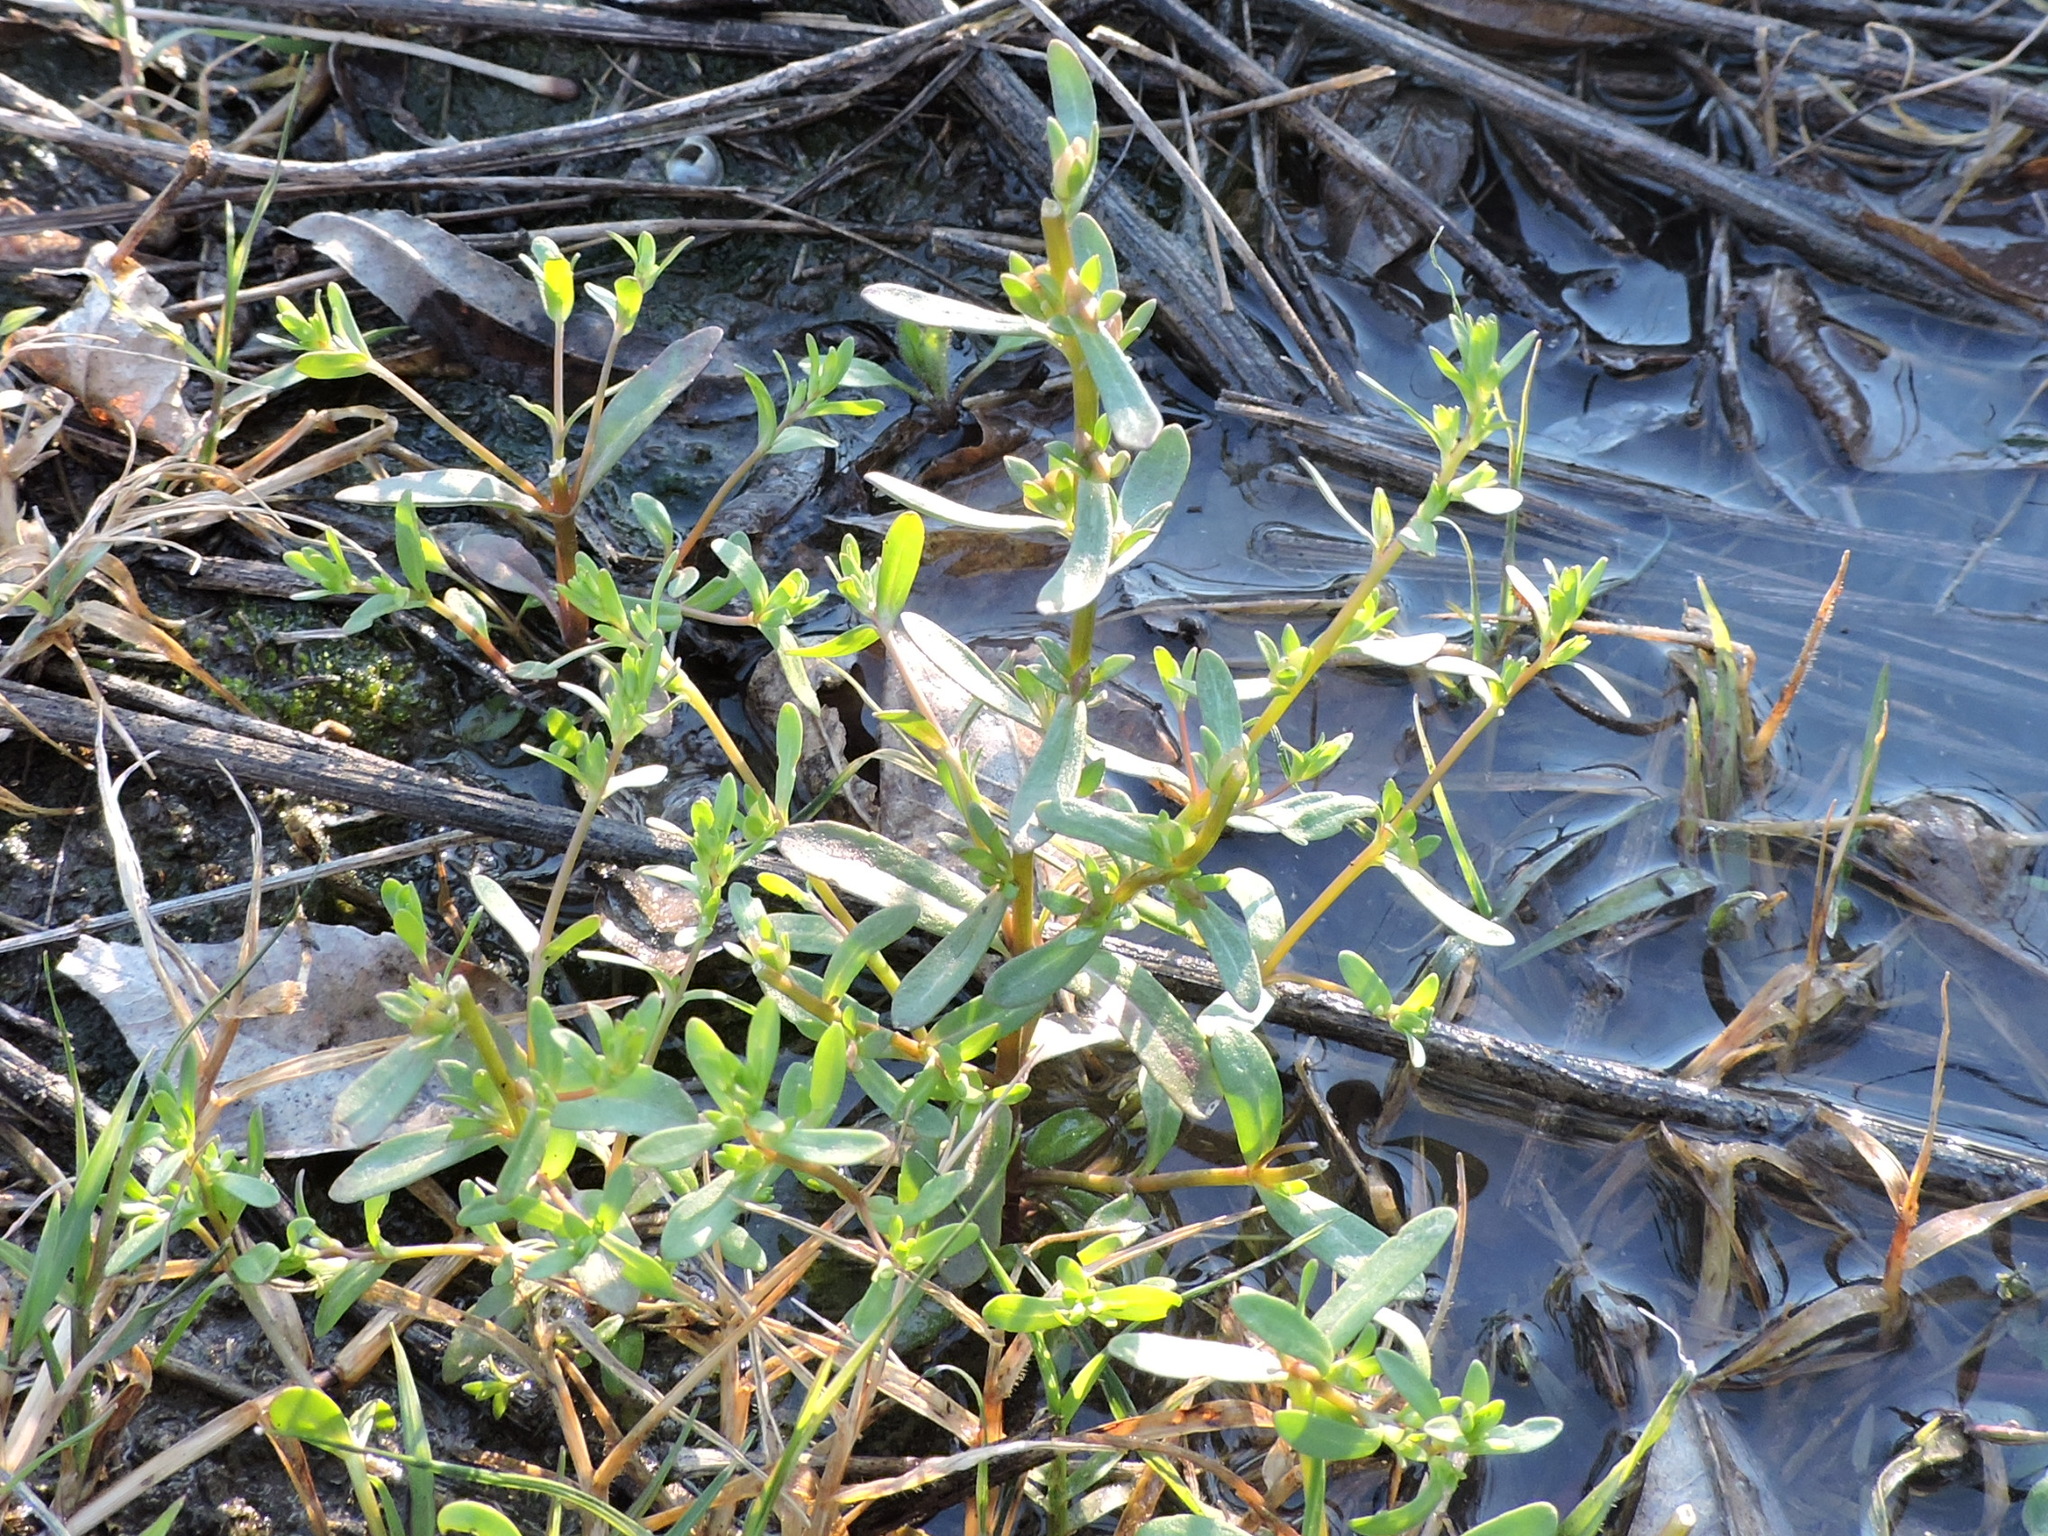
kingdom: Plantae
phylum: Tracheophyta
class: Magnoliopsida
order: Lamiales
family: Plantaginaceae
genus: Veronica
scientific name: Veronica peregrina
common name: Neckweed
